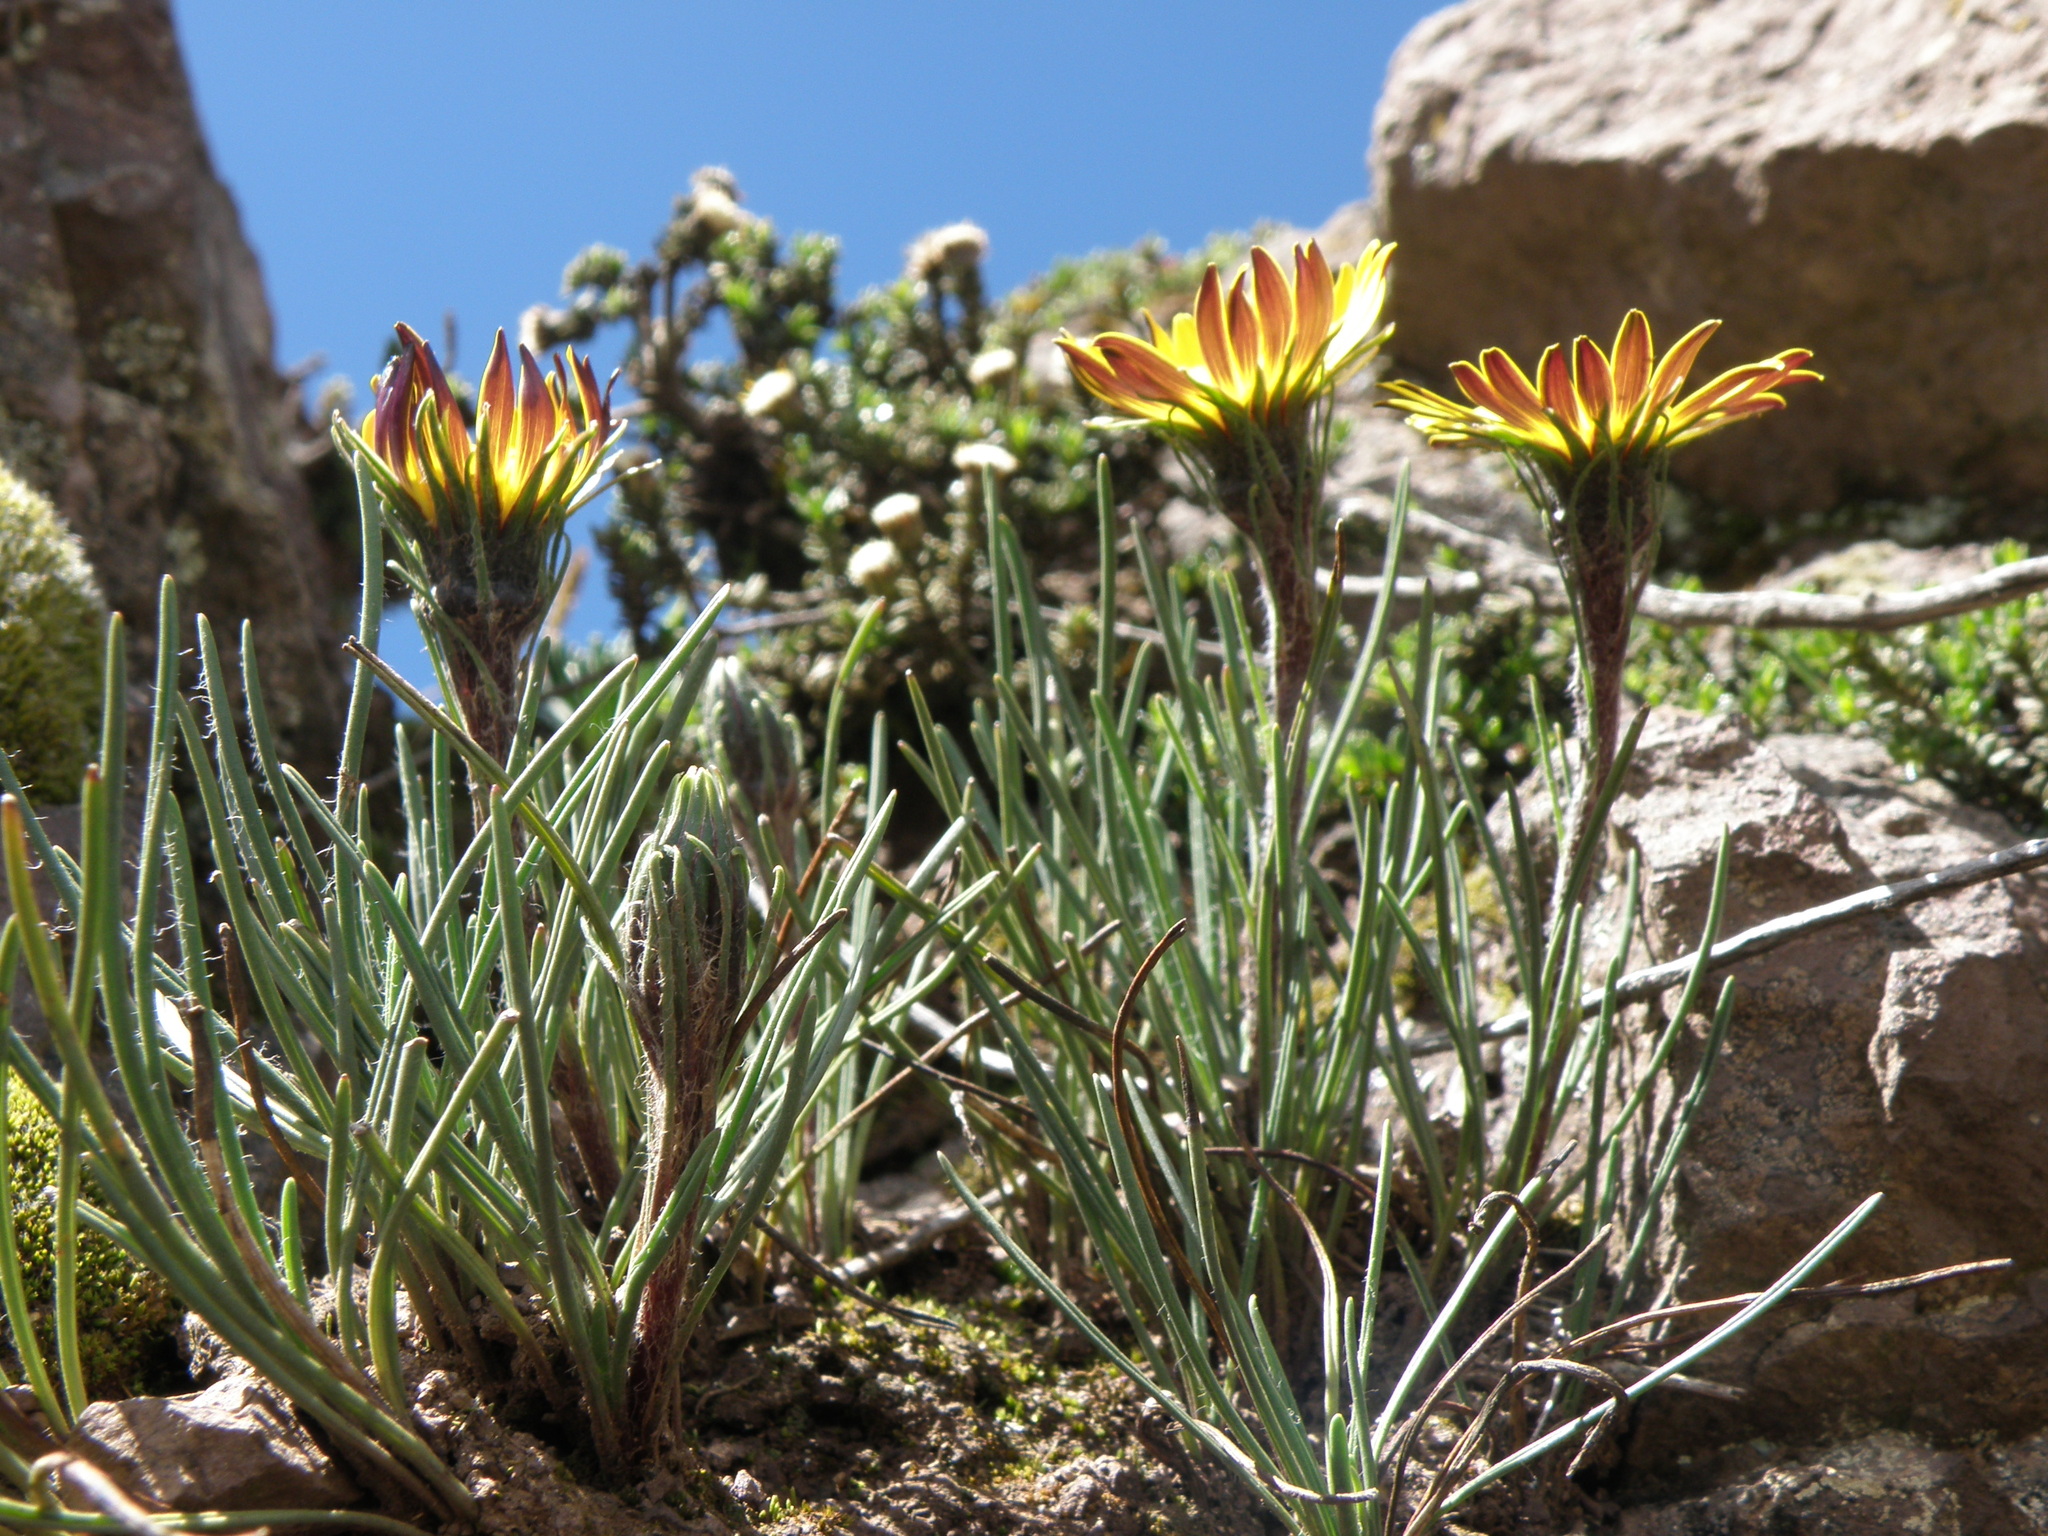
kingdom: Plantae
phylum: Tracheophyta
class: Magnoliopsida
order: Asterales
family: Asteraceae
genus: Rockhausenia
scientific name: Rockhausenia villosa
